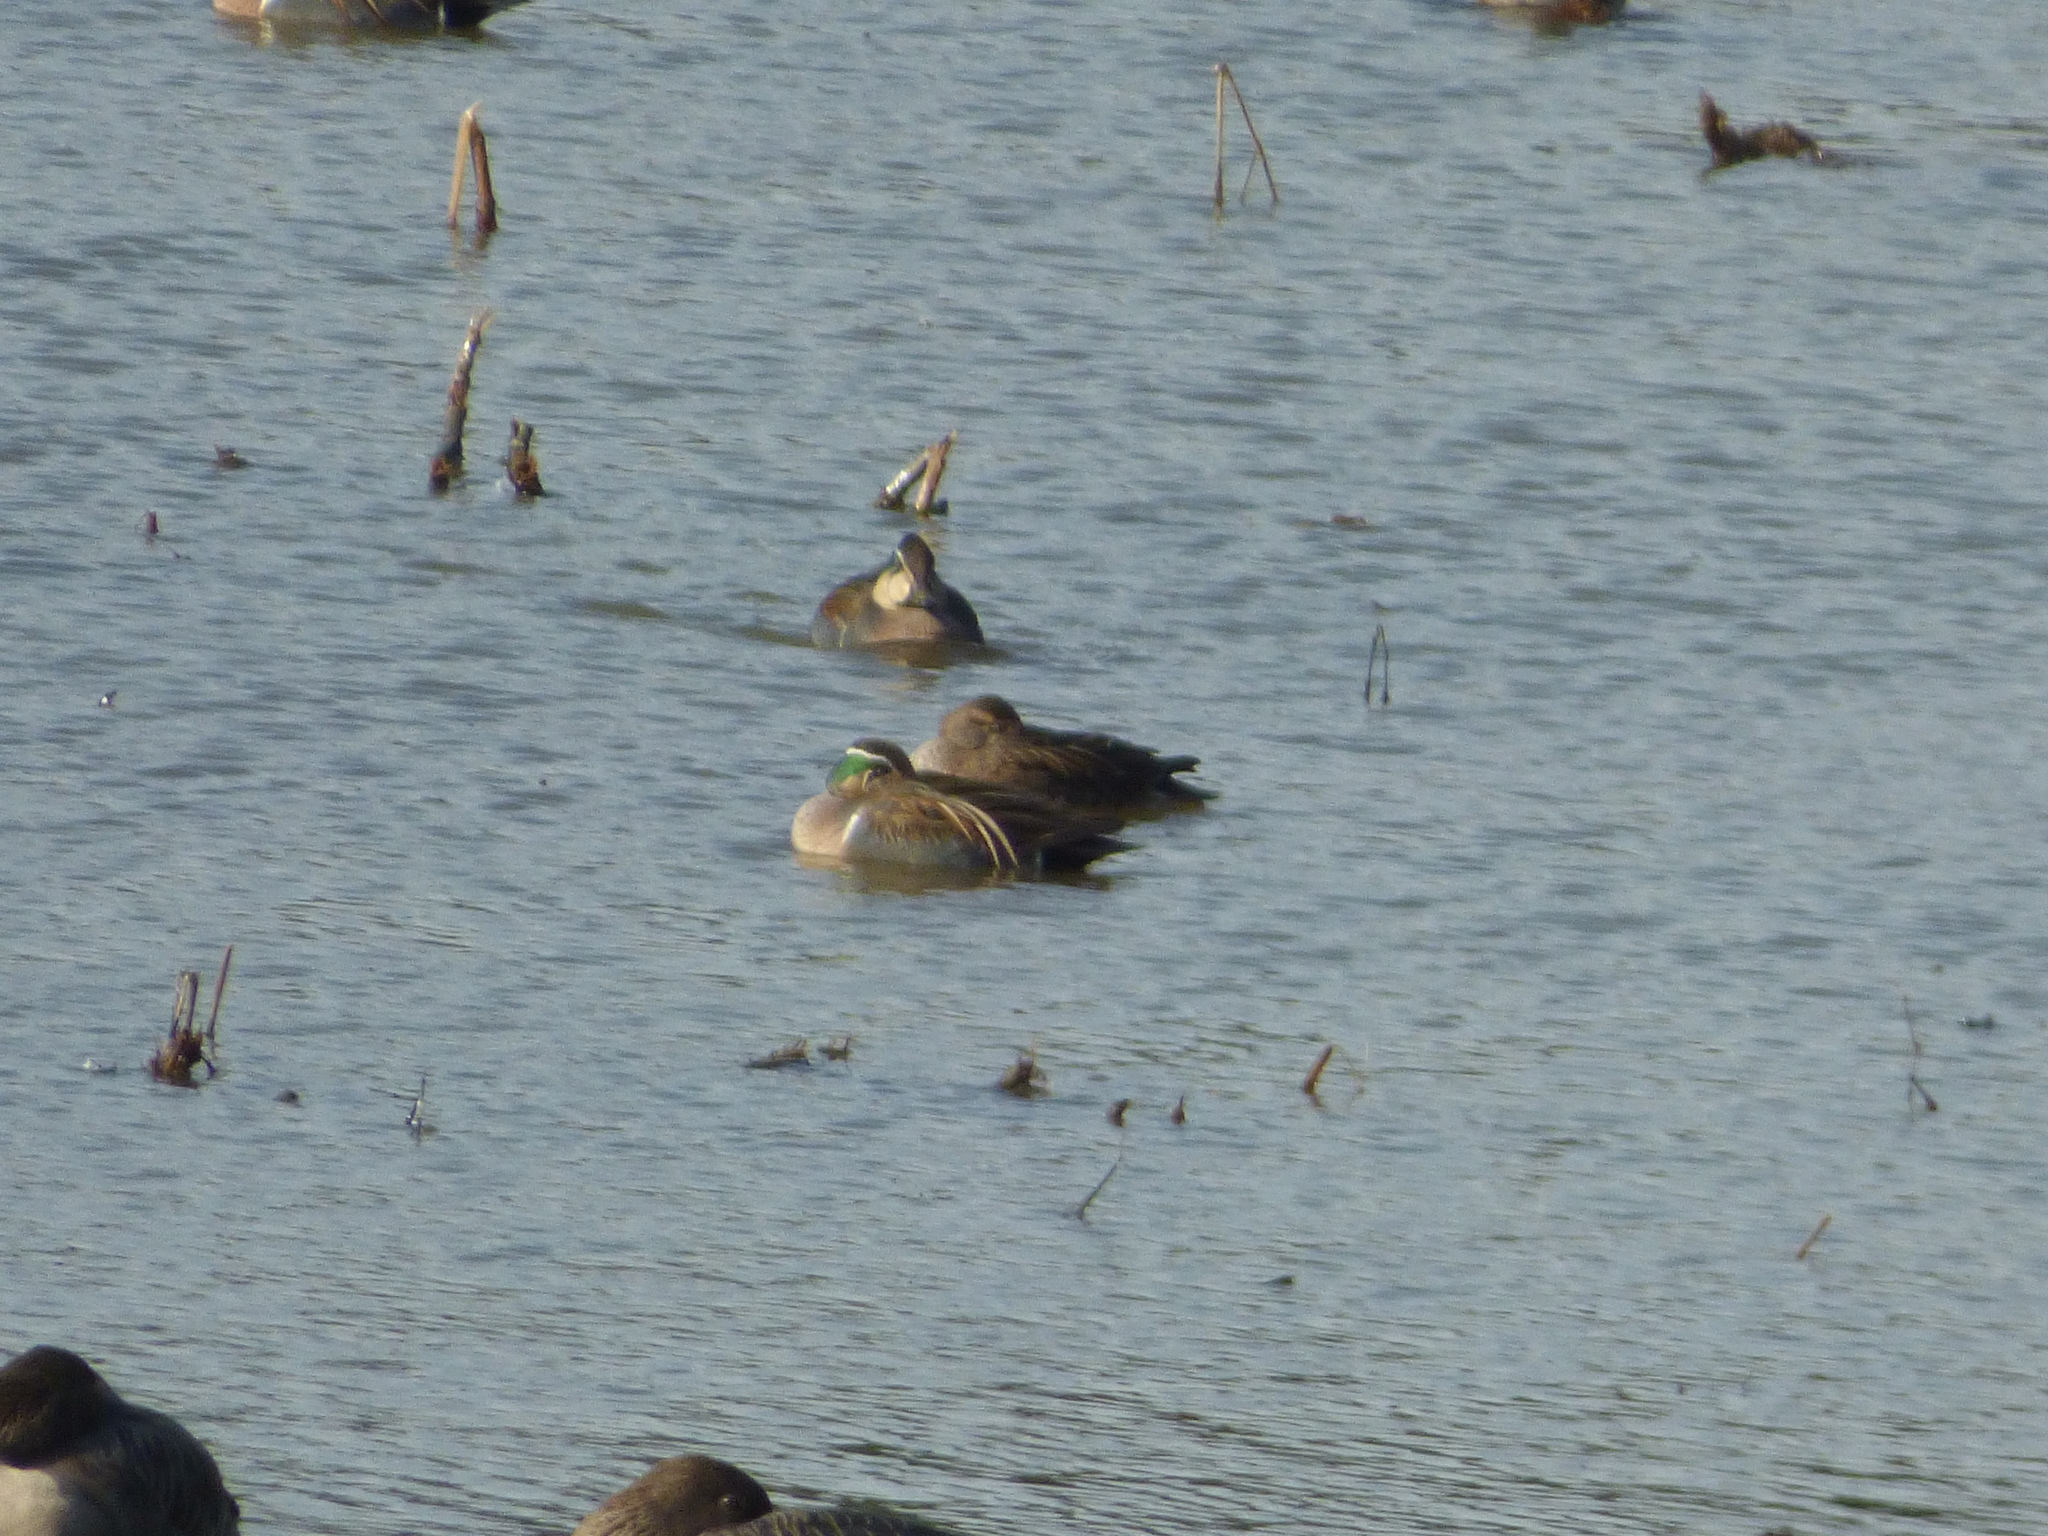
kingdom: Animalia
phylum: Chordata
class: Aves
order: Anseriformes
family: Anatidae
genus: Sibirionetta
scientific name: Sibirionetta formosa
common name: Baikal teal
